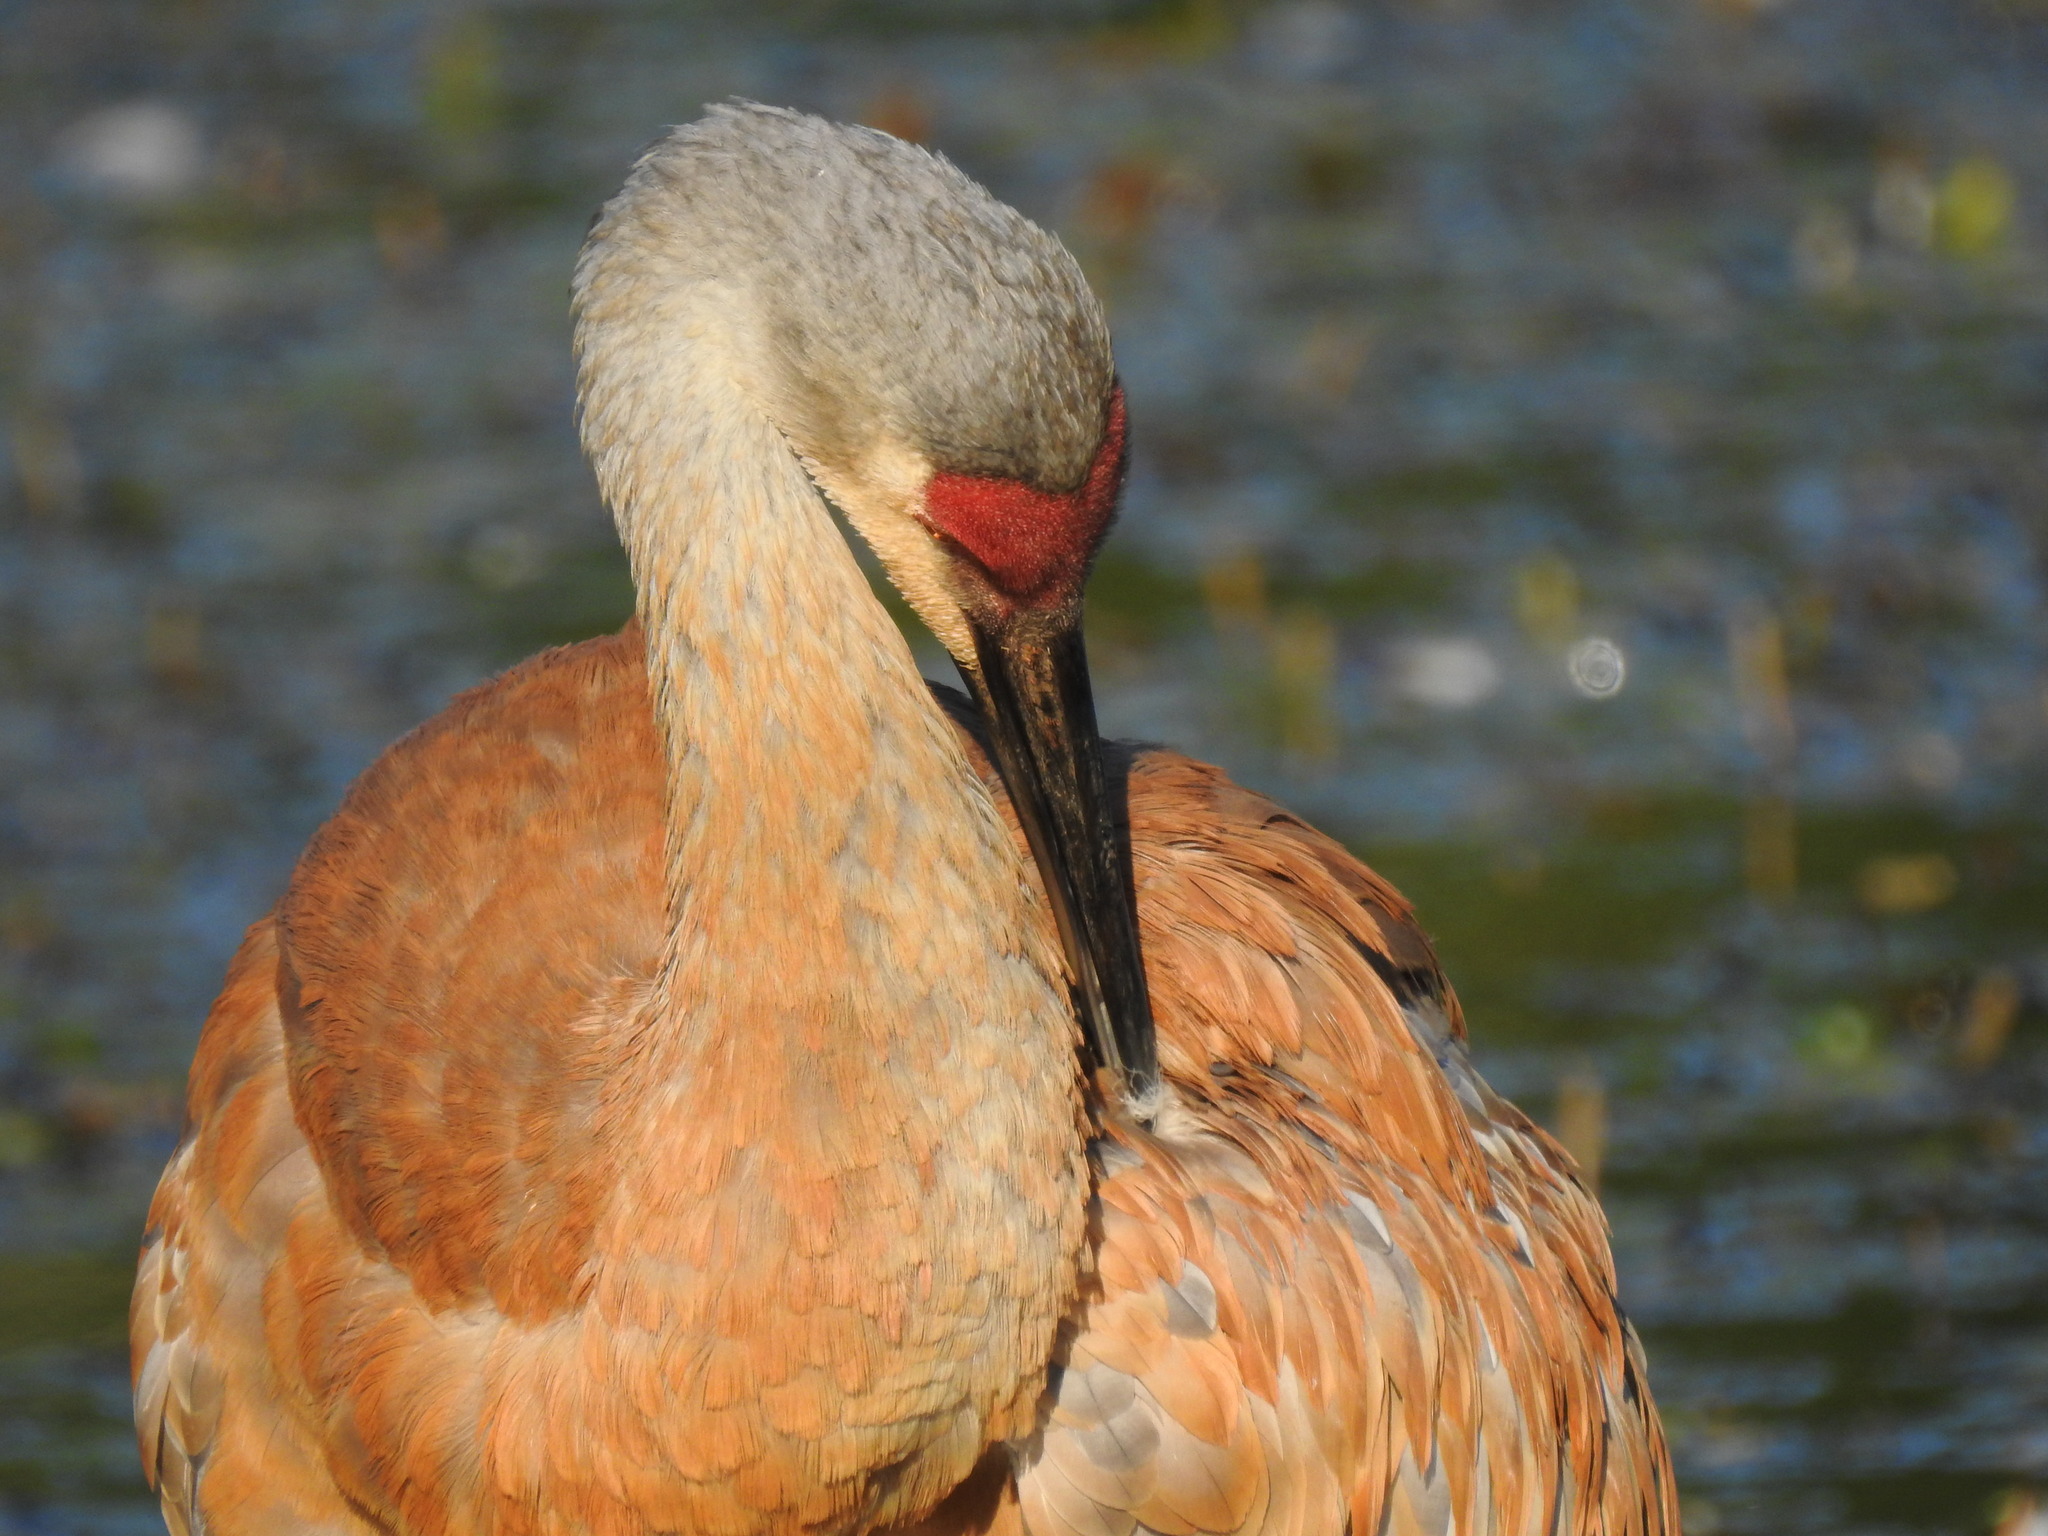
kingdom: Animalia
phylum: Chordata
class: Aves
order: Gruiformes
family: Gruidae
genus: Grus
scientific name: Grus canadensis
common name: Sandhill crane
